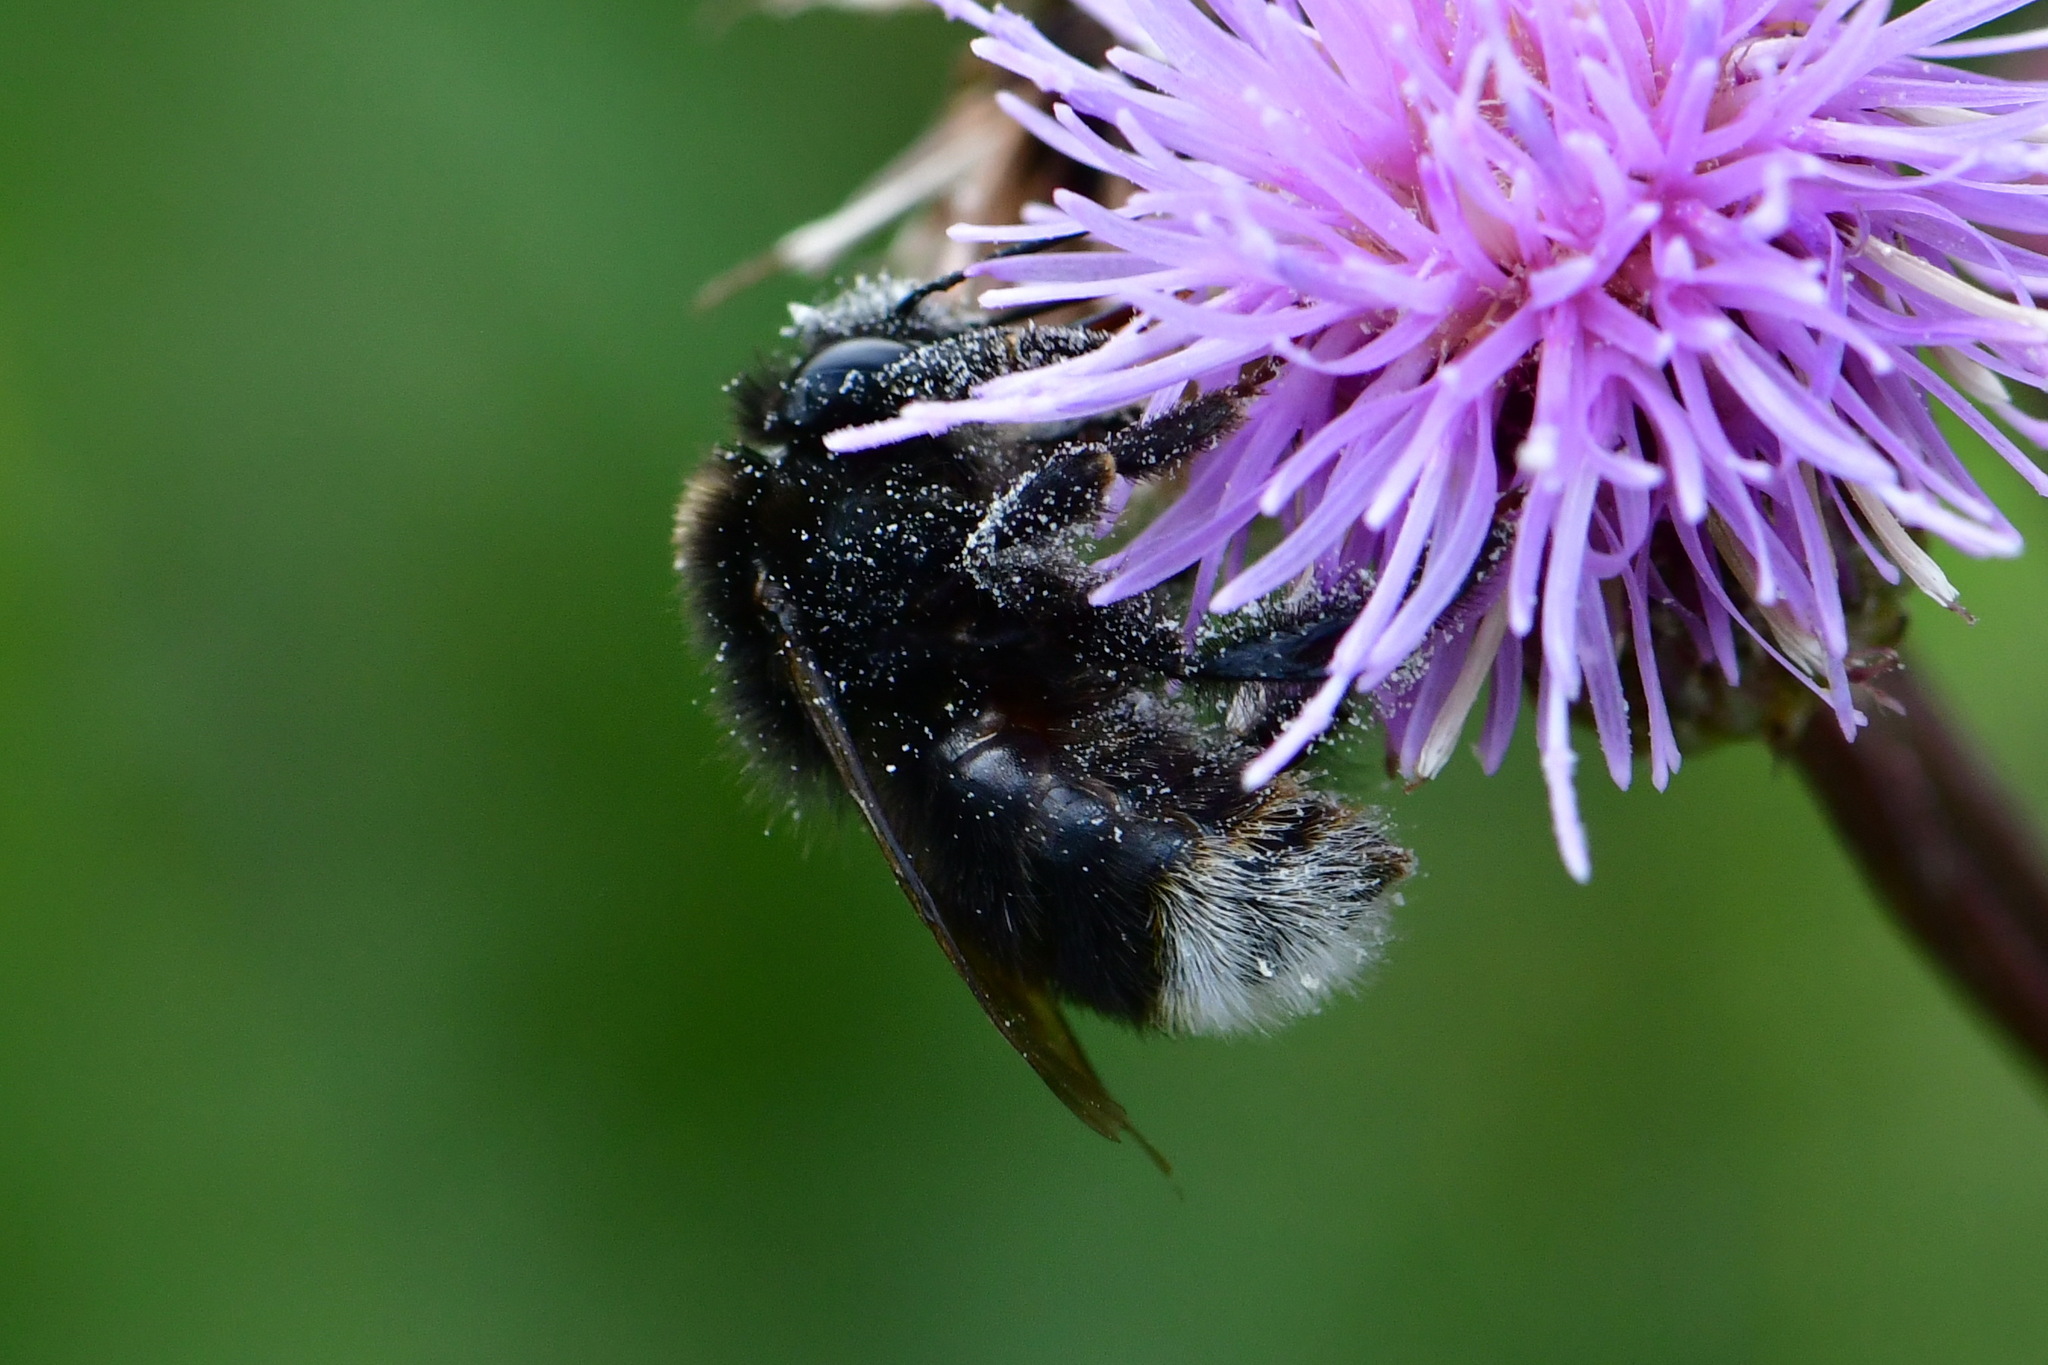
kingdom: Animalia
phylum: Arthropoda
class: Insecta
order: Hymenoptera
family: Apidae
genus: Bombus
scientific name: Bombus soroeensis
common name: Broken-belted humble-bee
